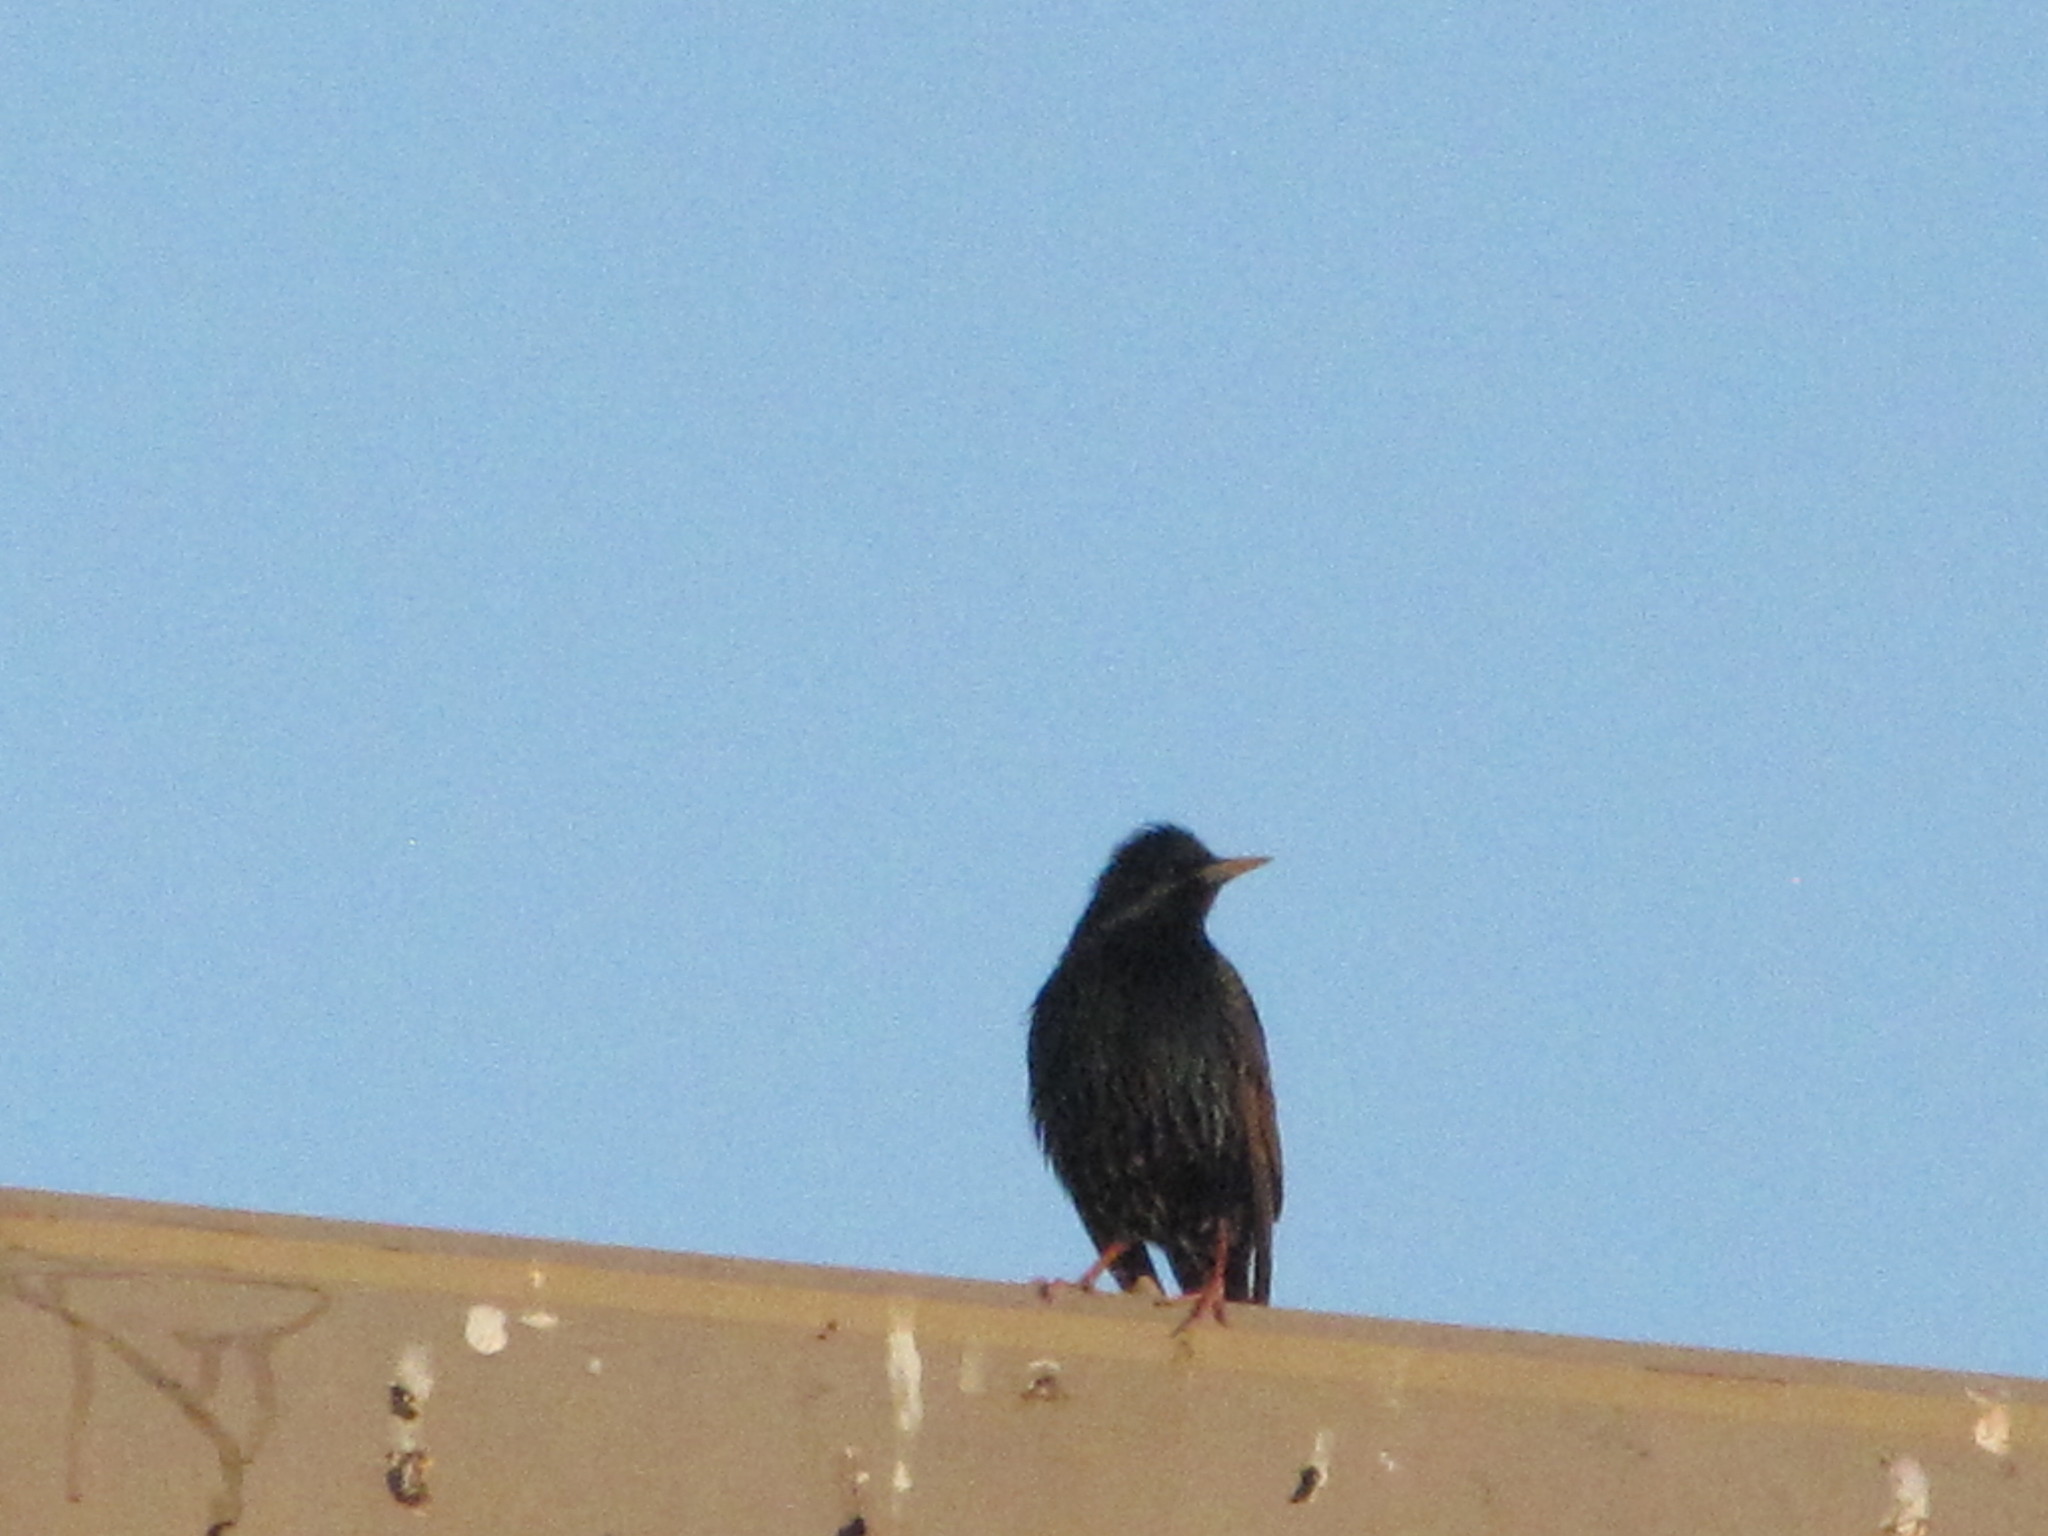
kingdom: Animalia
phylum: Chordata
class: Aves
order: Passeriformes
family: Sturnidae
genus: Sturnus
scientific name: Sturnus vulgaris
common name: Common starling
